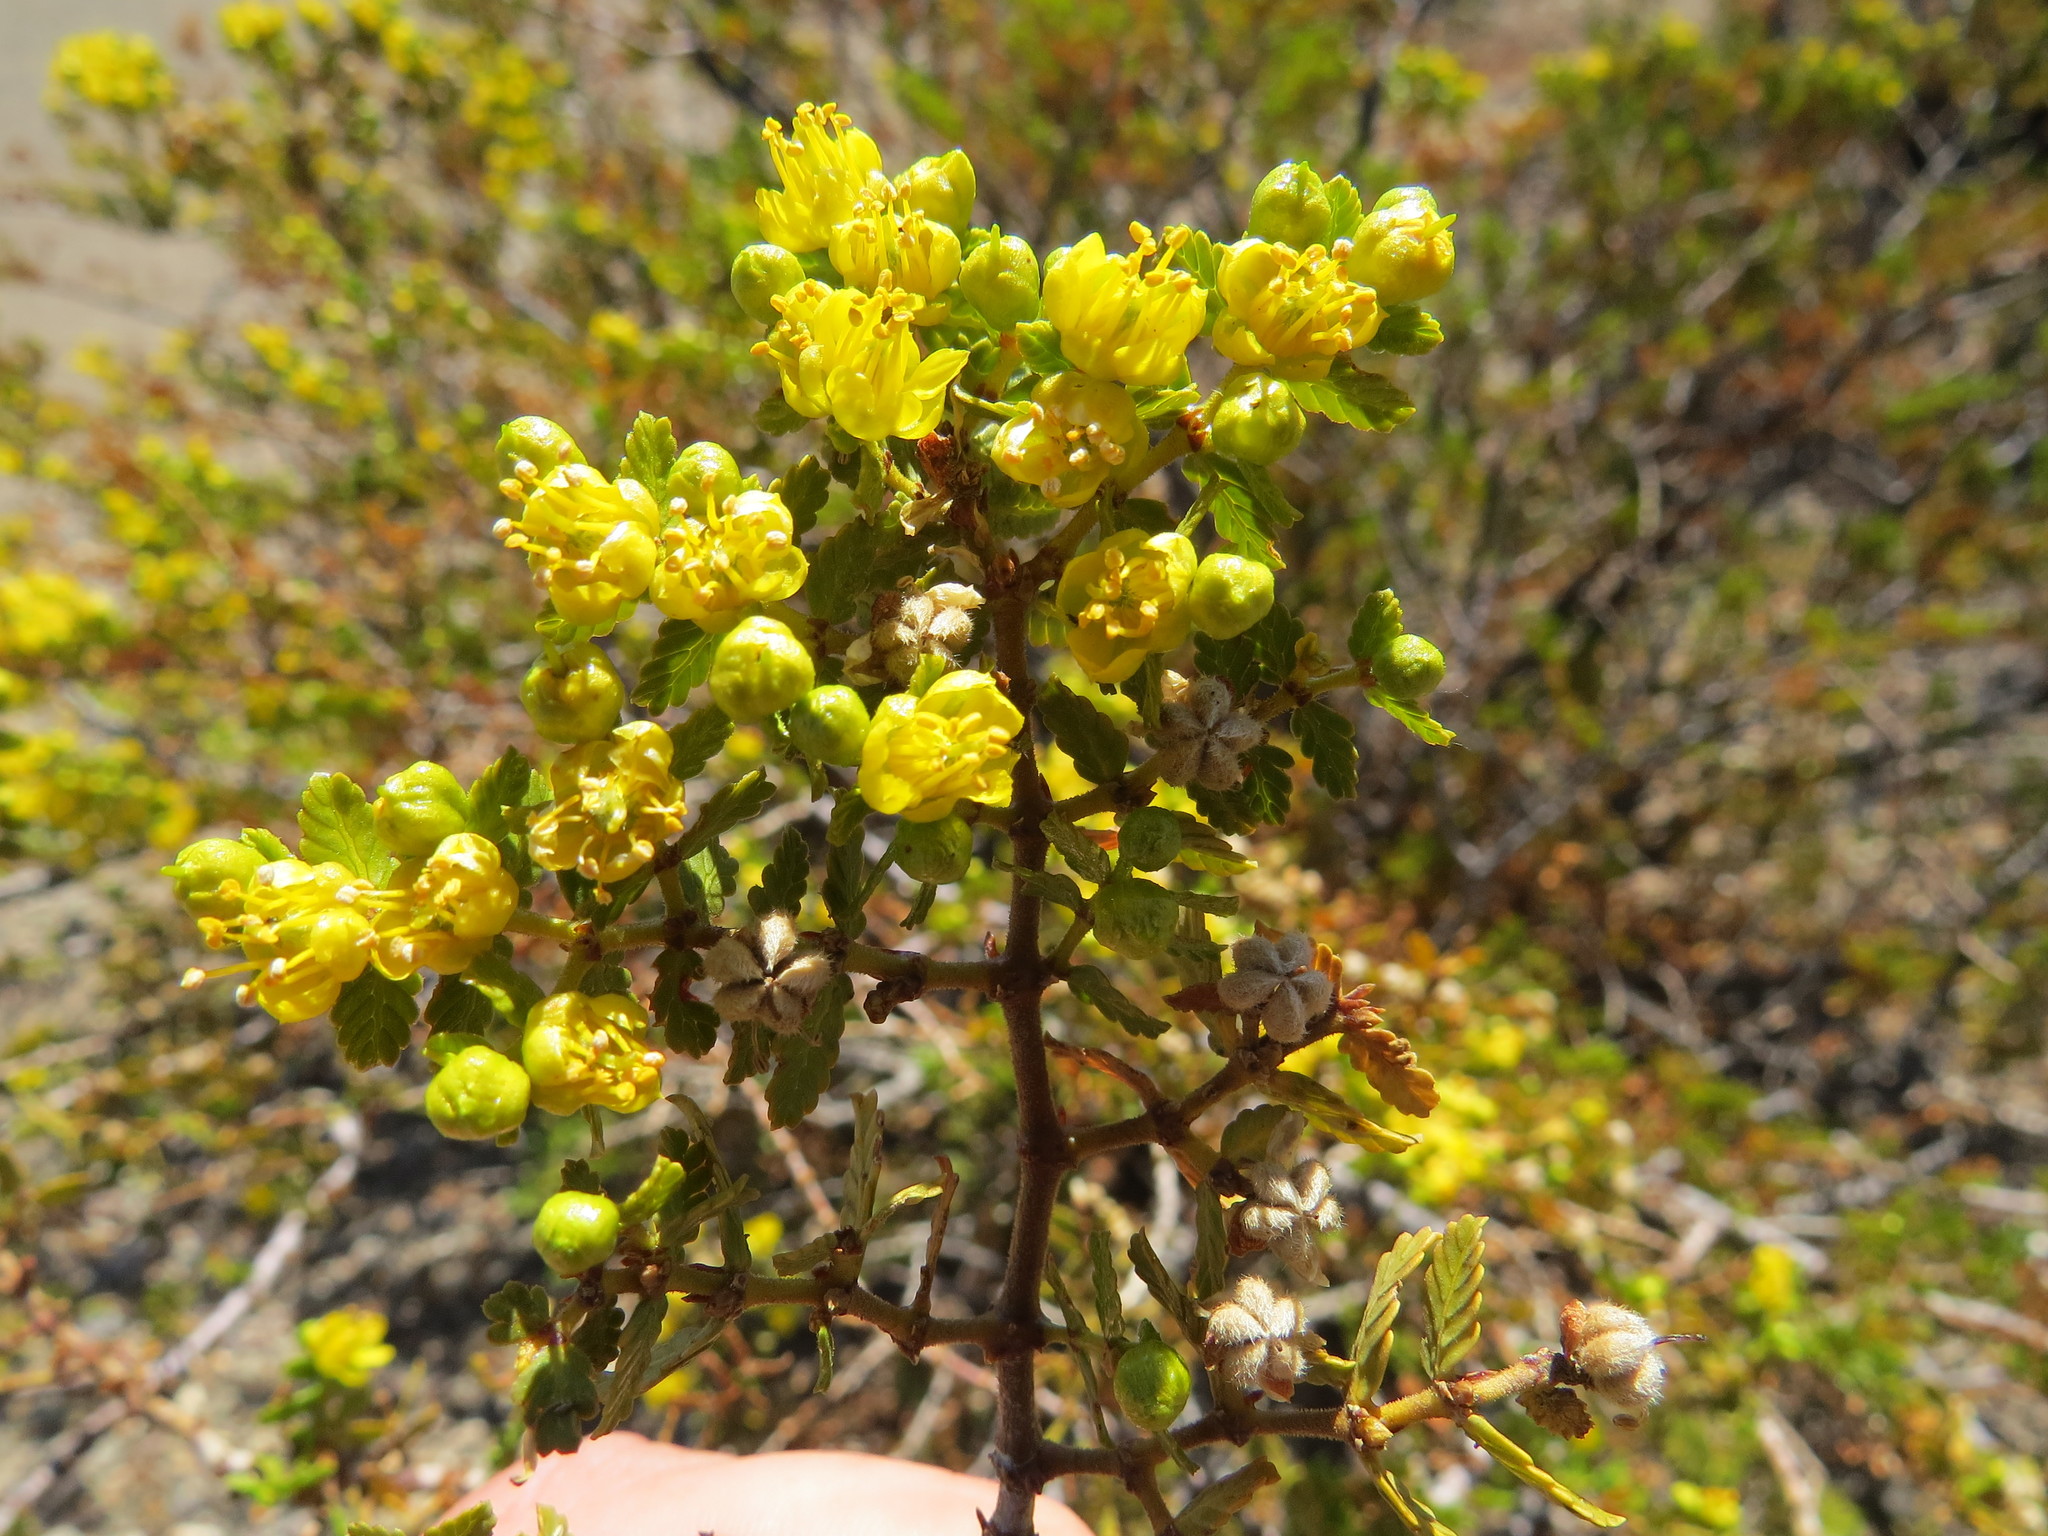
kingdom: Plantae
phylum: Tracheophyta
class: Magnoliopsida
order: Zygophyllales
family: Zygophyllaceae
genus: Larrea
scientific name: Larrea nitida
